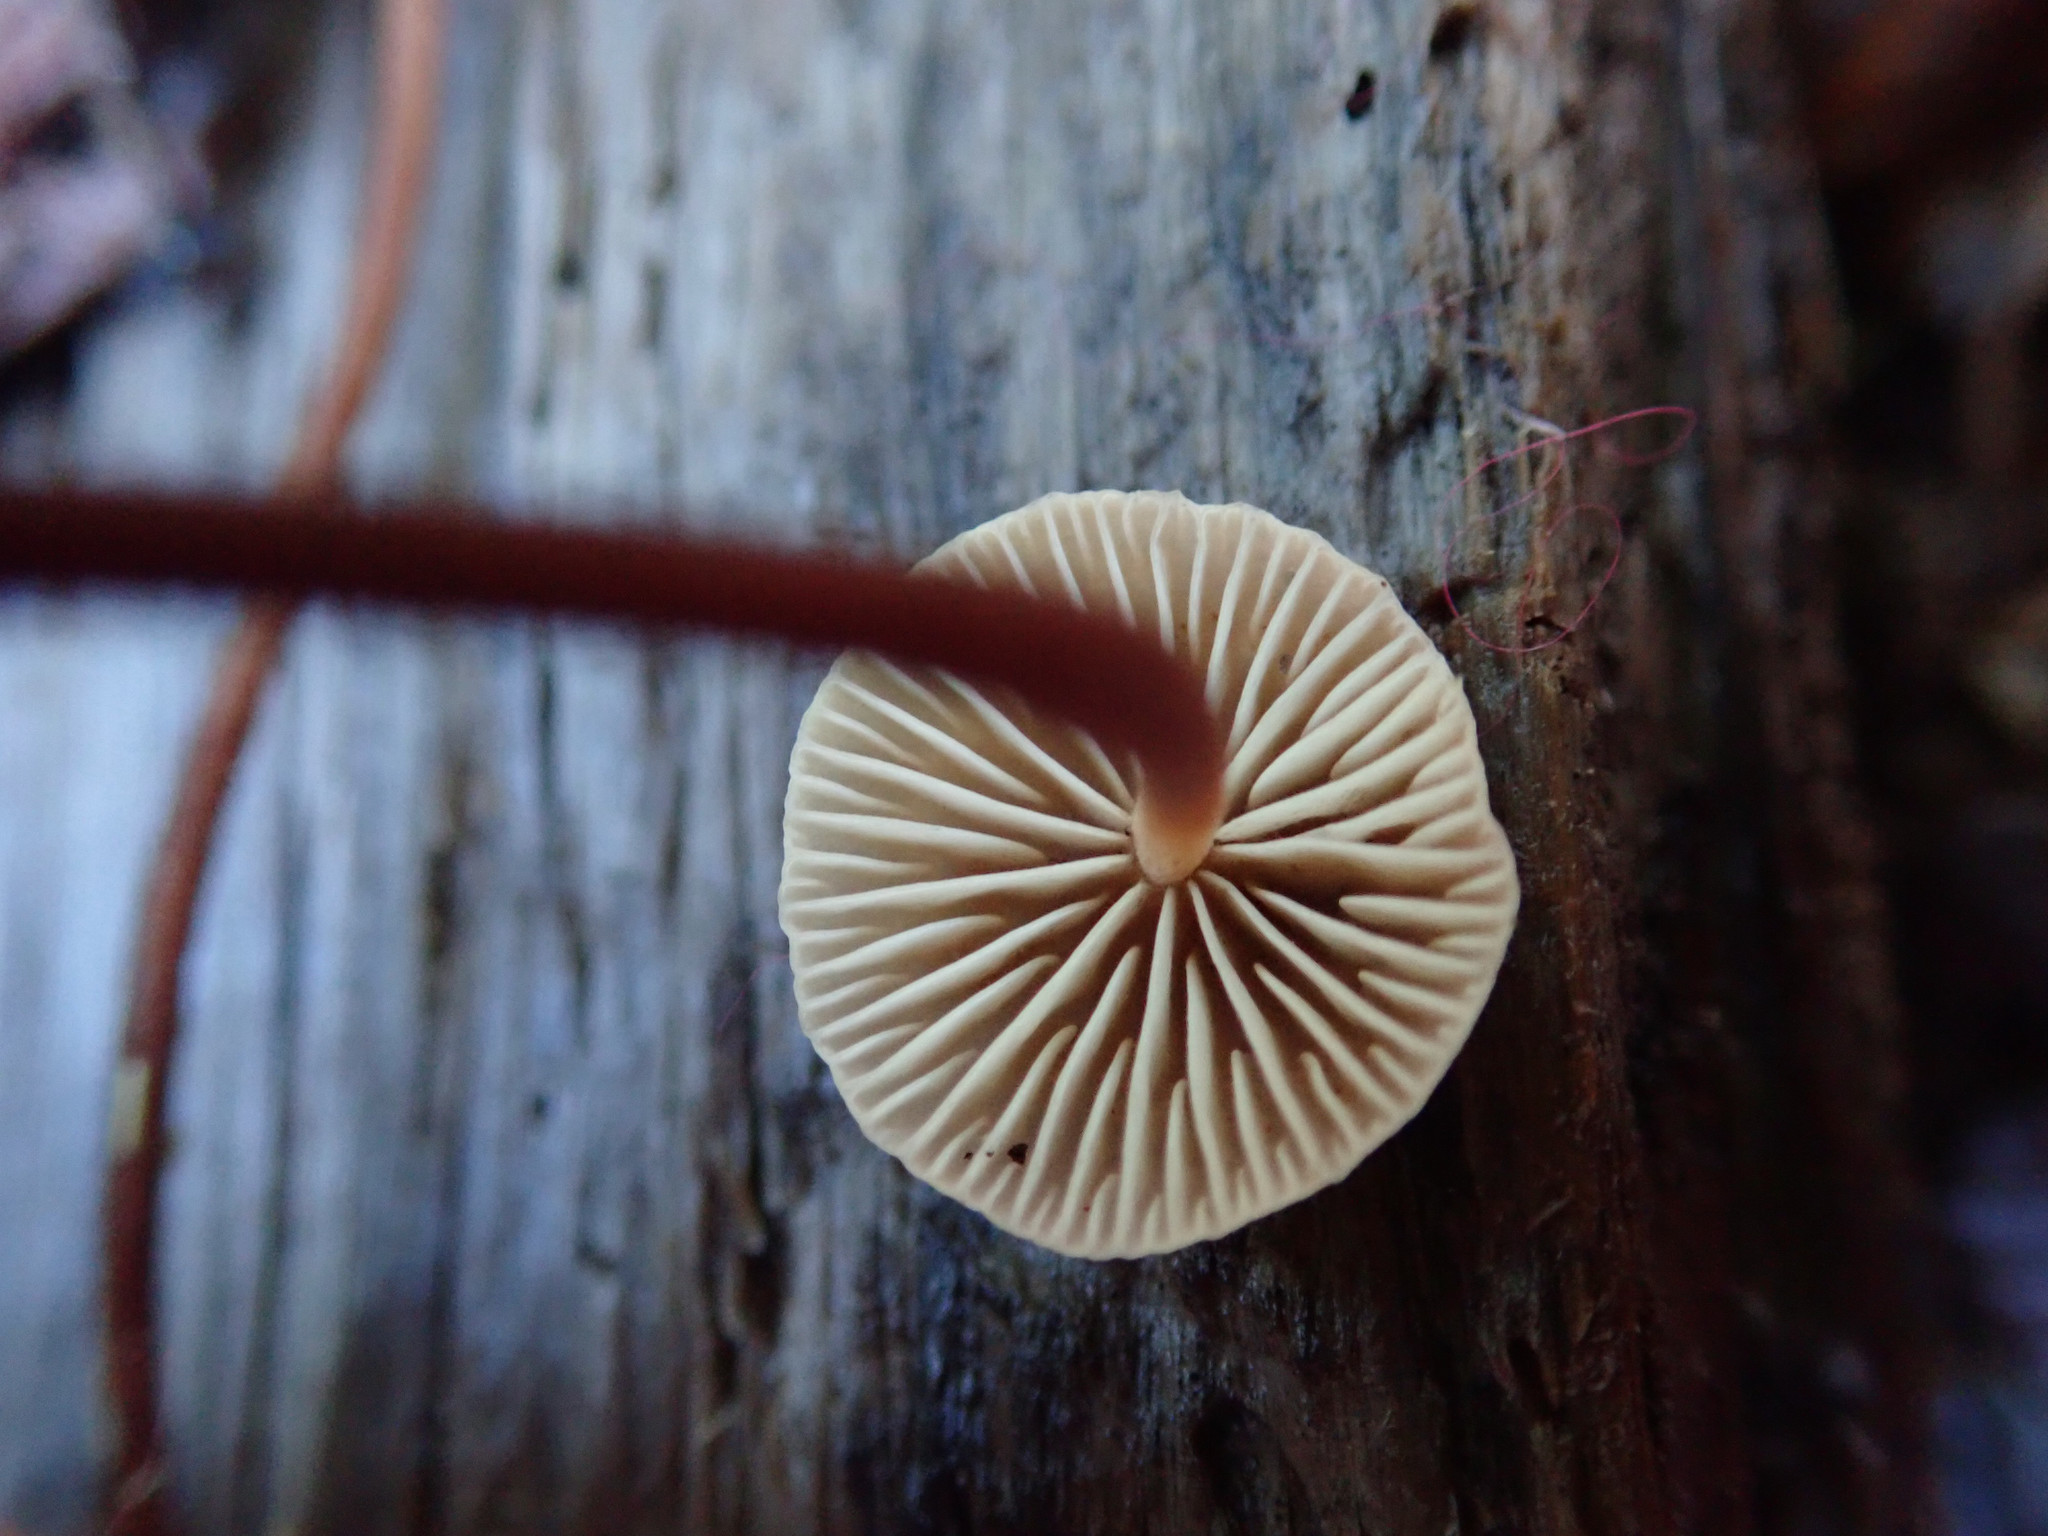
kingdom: Fungi
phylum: Basidiomycota
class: Agaricomycetes
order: Agaricales
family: Omphalotaceae
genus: Mycetinis
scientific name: Mycetinis copelandii
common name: Garlic mushroom
